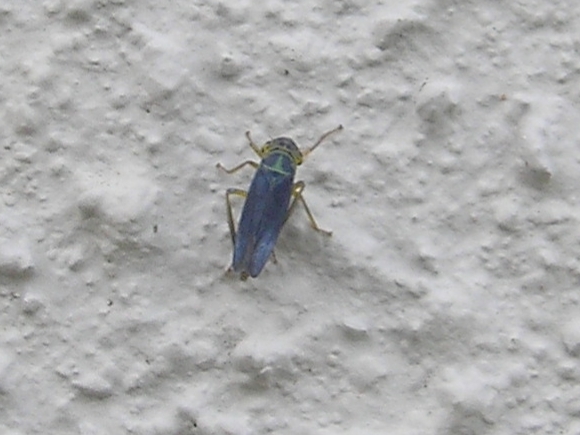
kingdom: Animalia
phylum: Arthropoda
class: Insecta
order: Hemiptera
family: Cicadellidae
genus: Cicadella
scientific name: Cicadella viridis
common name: Leafhopper
